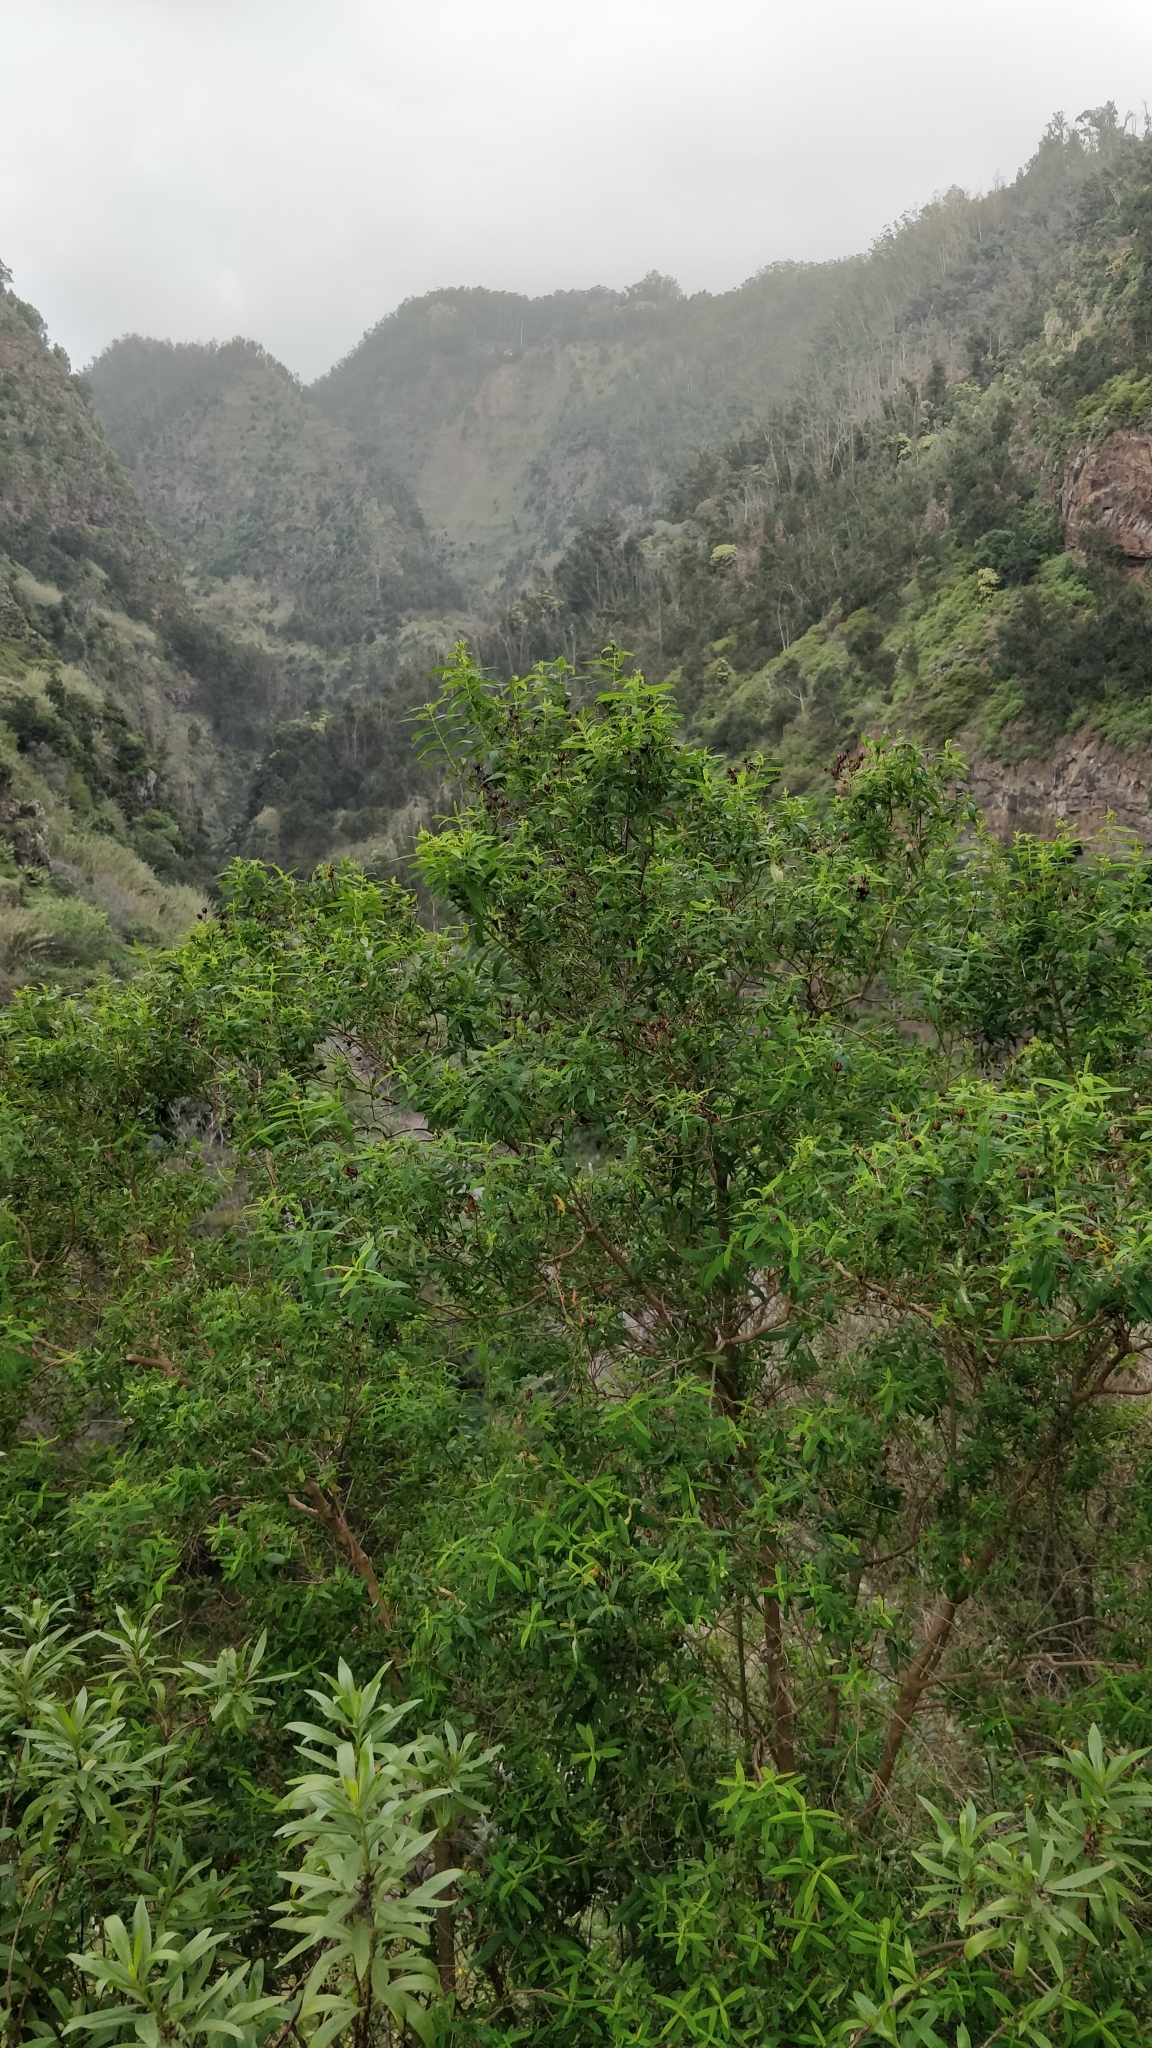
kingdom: Plantae
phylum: Tracheophyta
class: Magnoliopsida
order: Malpighiales
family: Hypericaceae
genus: Hypericum
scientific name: Hypericum canariense
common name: Canary island st. johnswort
